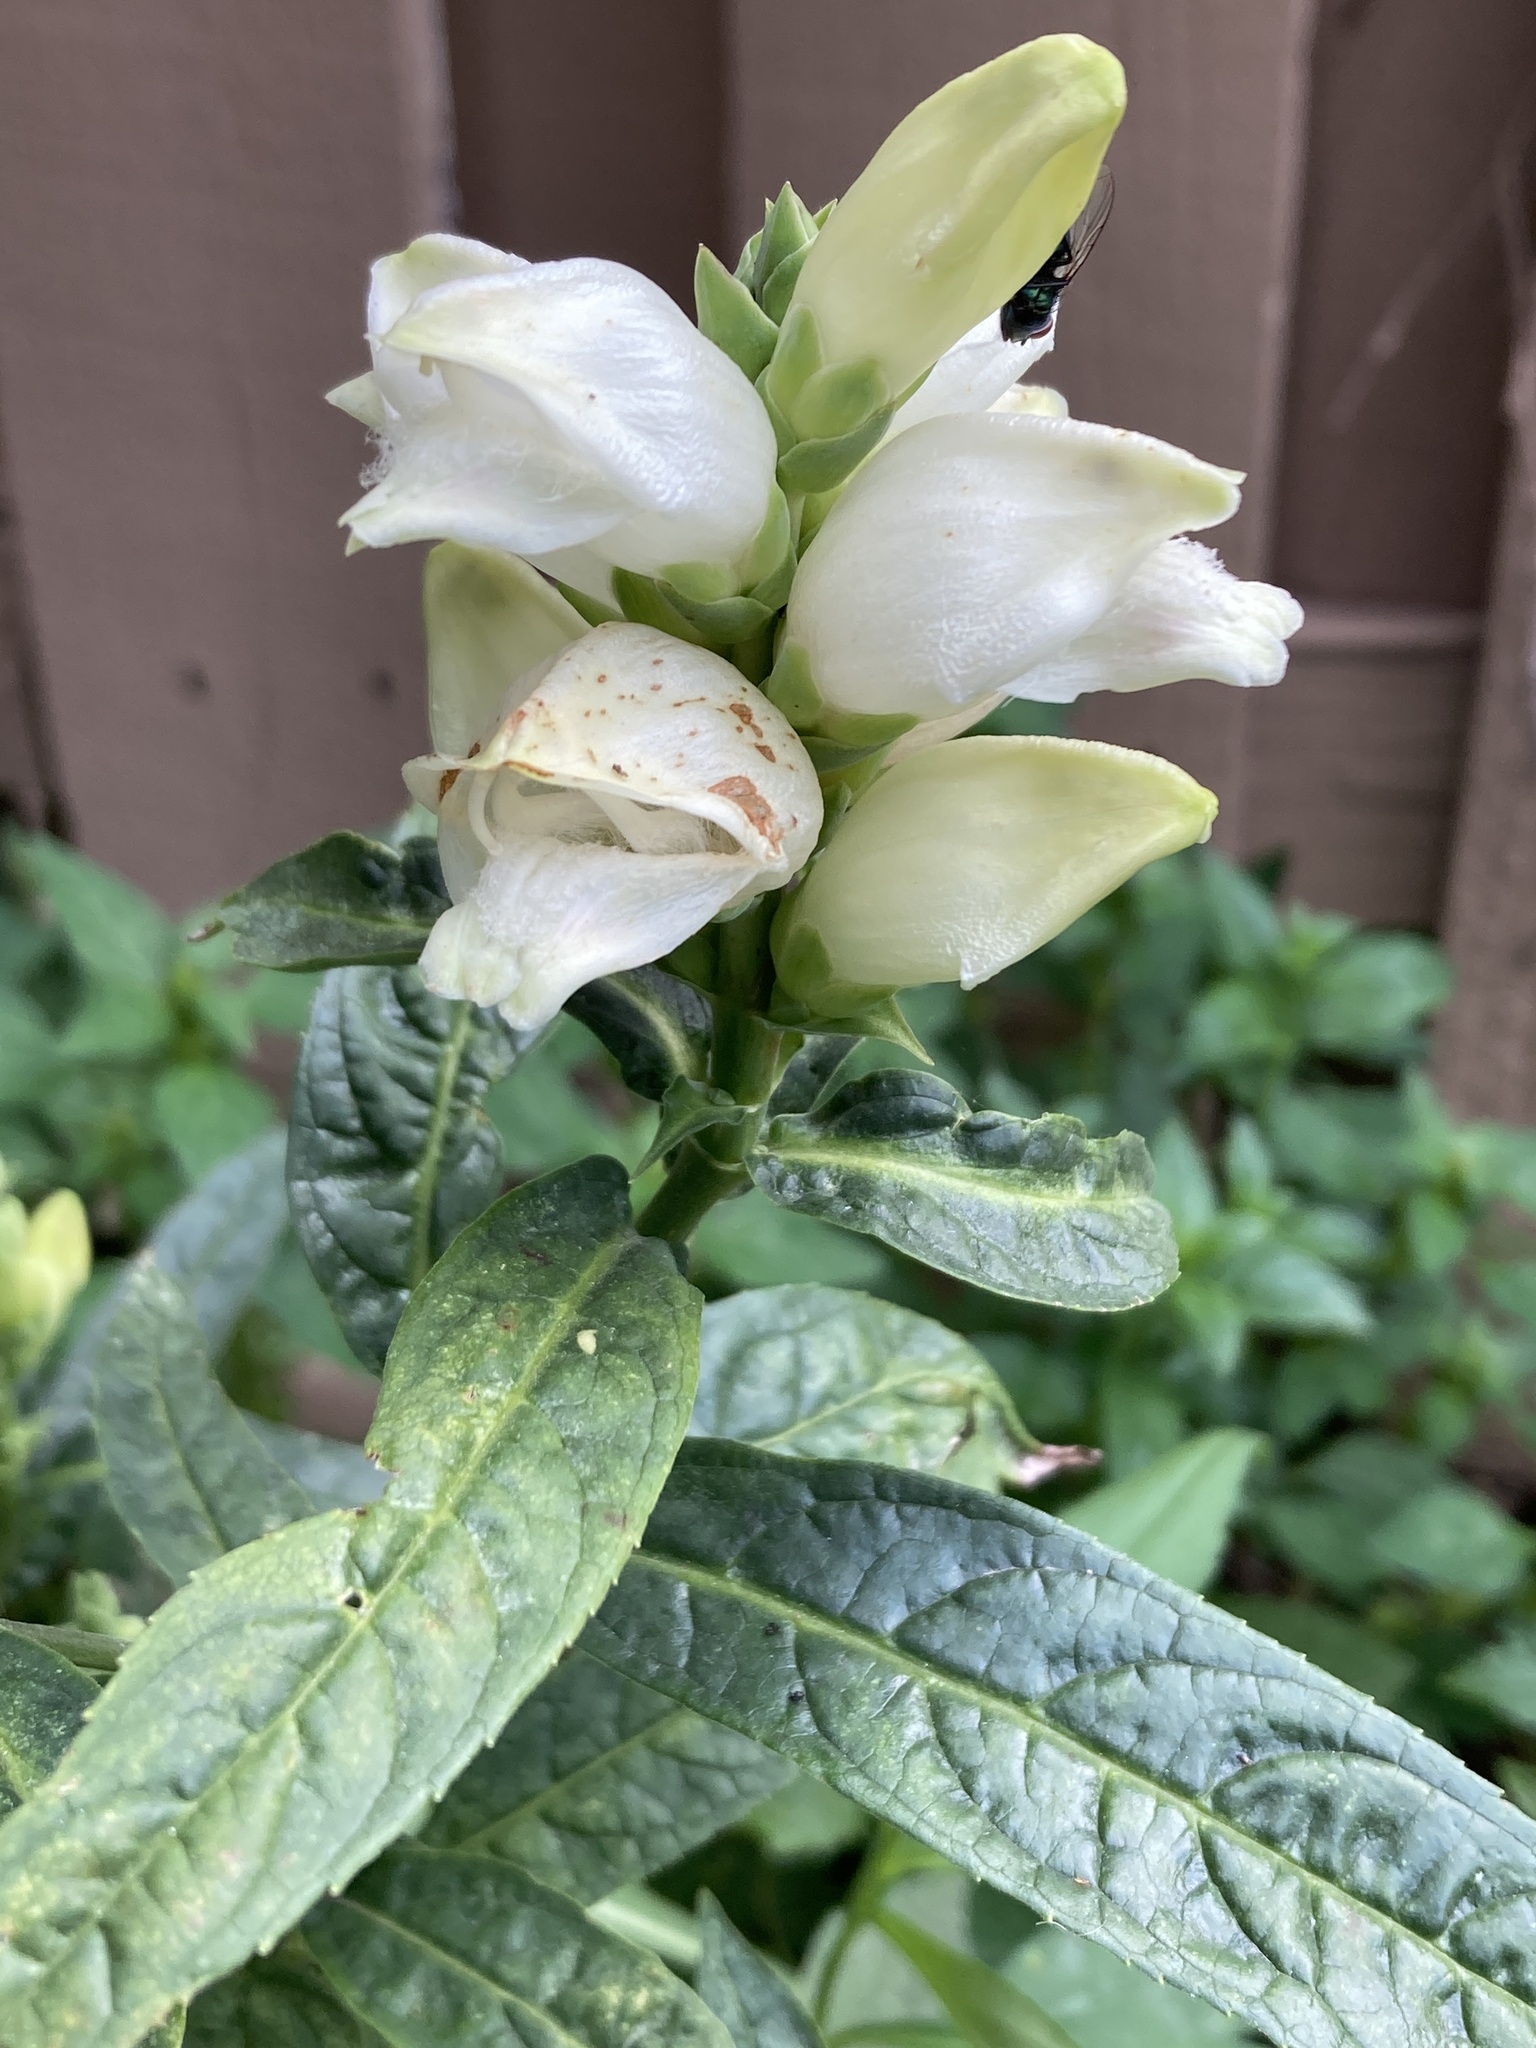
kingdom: Plantae
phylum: Tracheophyta
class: Magnoliopsida
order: Lamiales
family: Plantaginaceae
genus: Chelone
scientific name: Chelone glabra
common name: Snakehead
